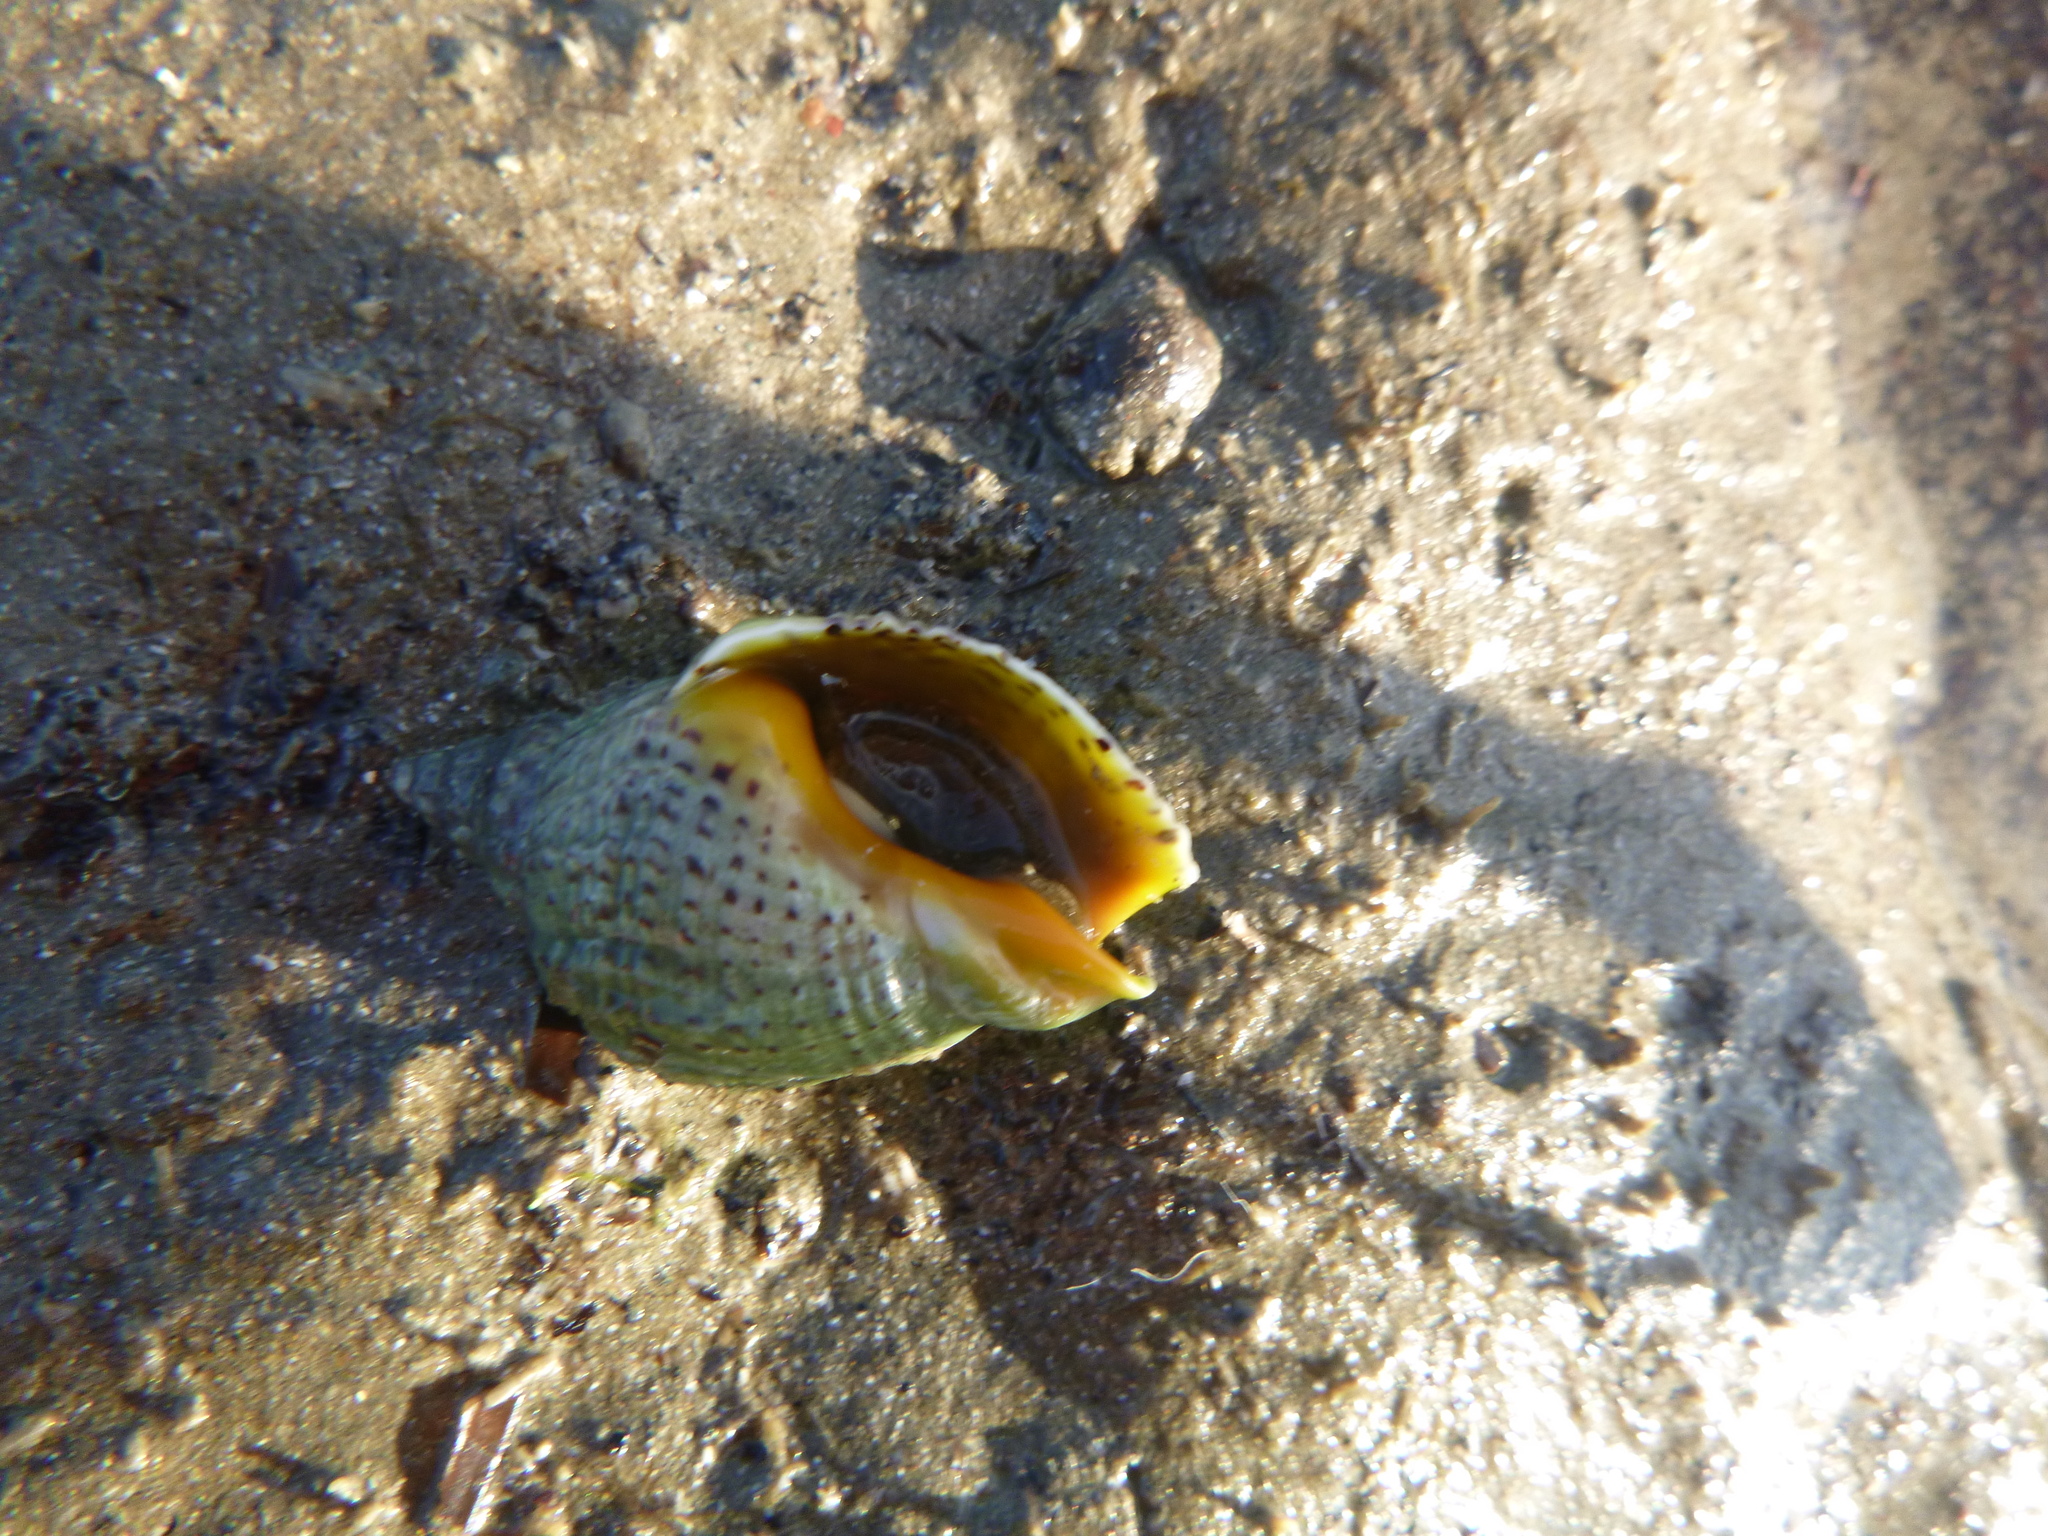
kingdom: Animalia
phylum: Mollusca
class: Gastropoda
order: Neogastropoda
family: Cominellidae
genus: Cominella
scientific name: Cominella adspersa
